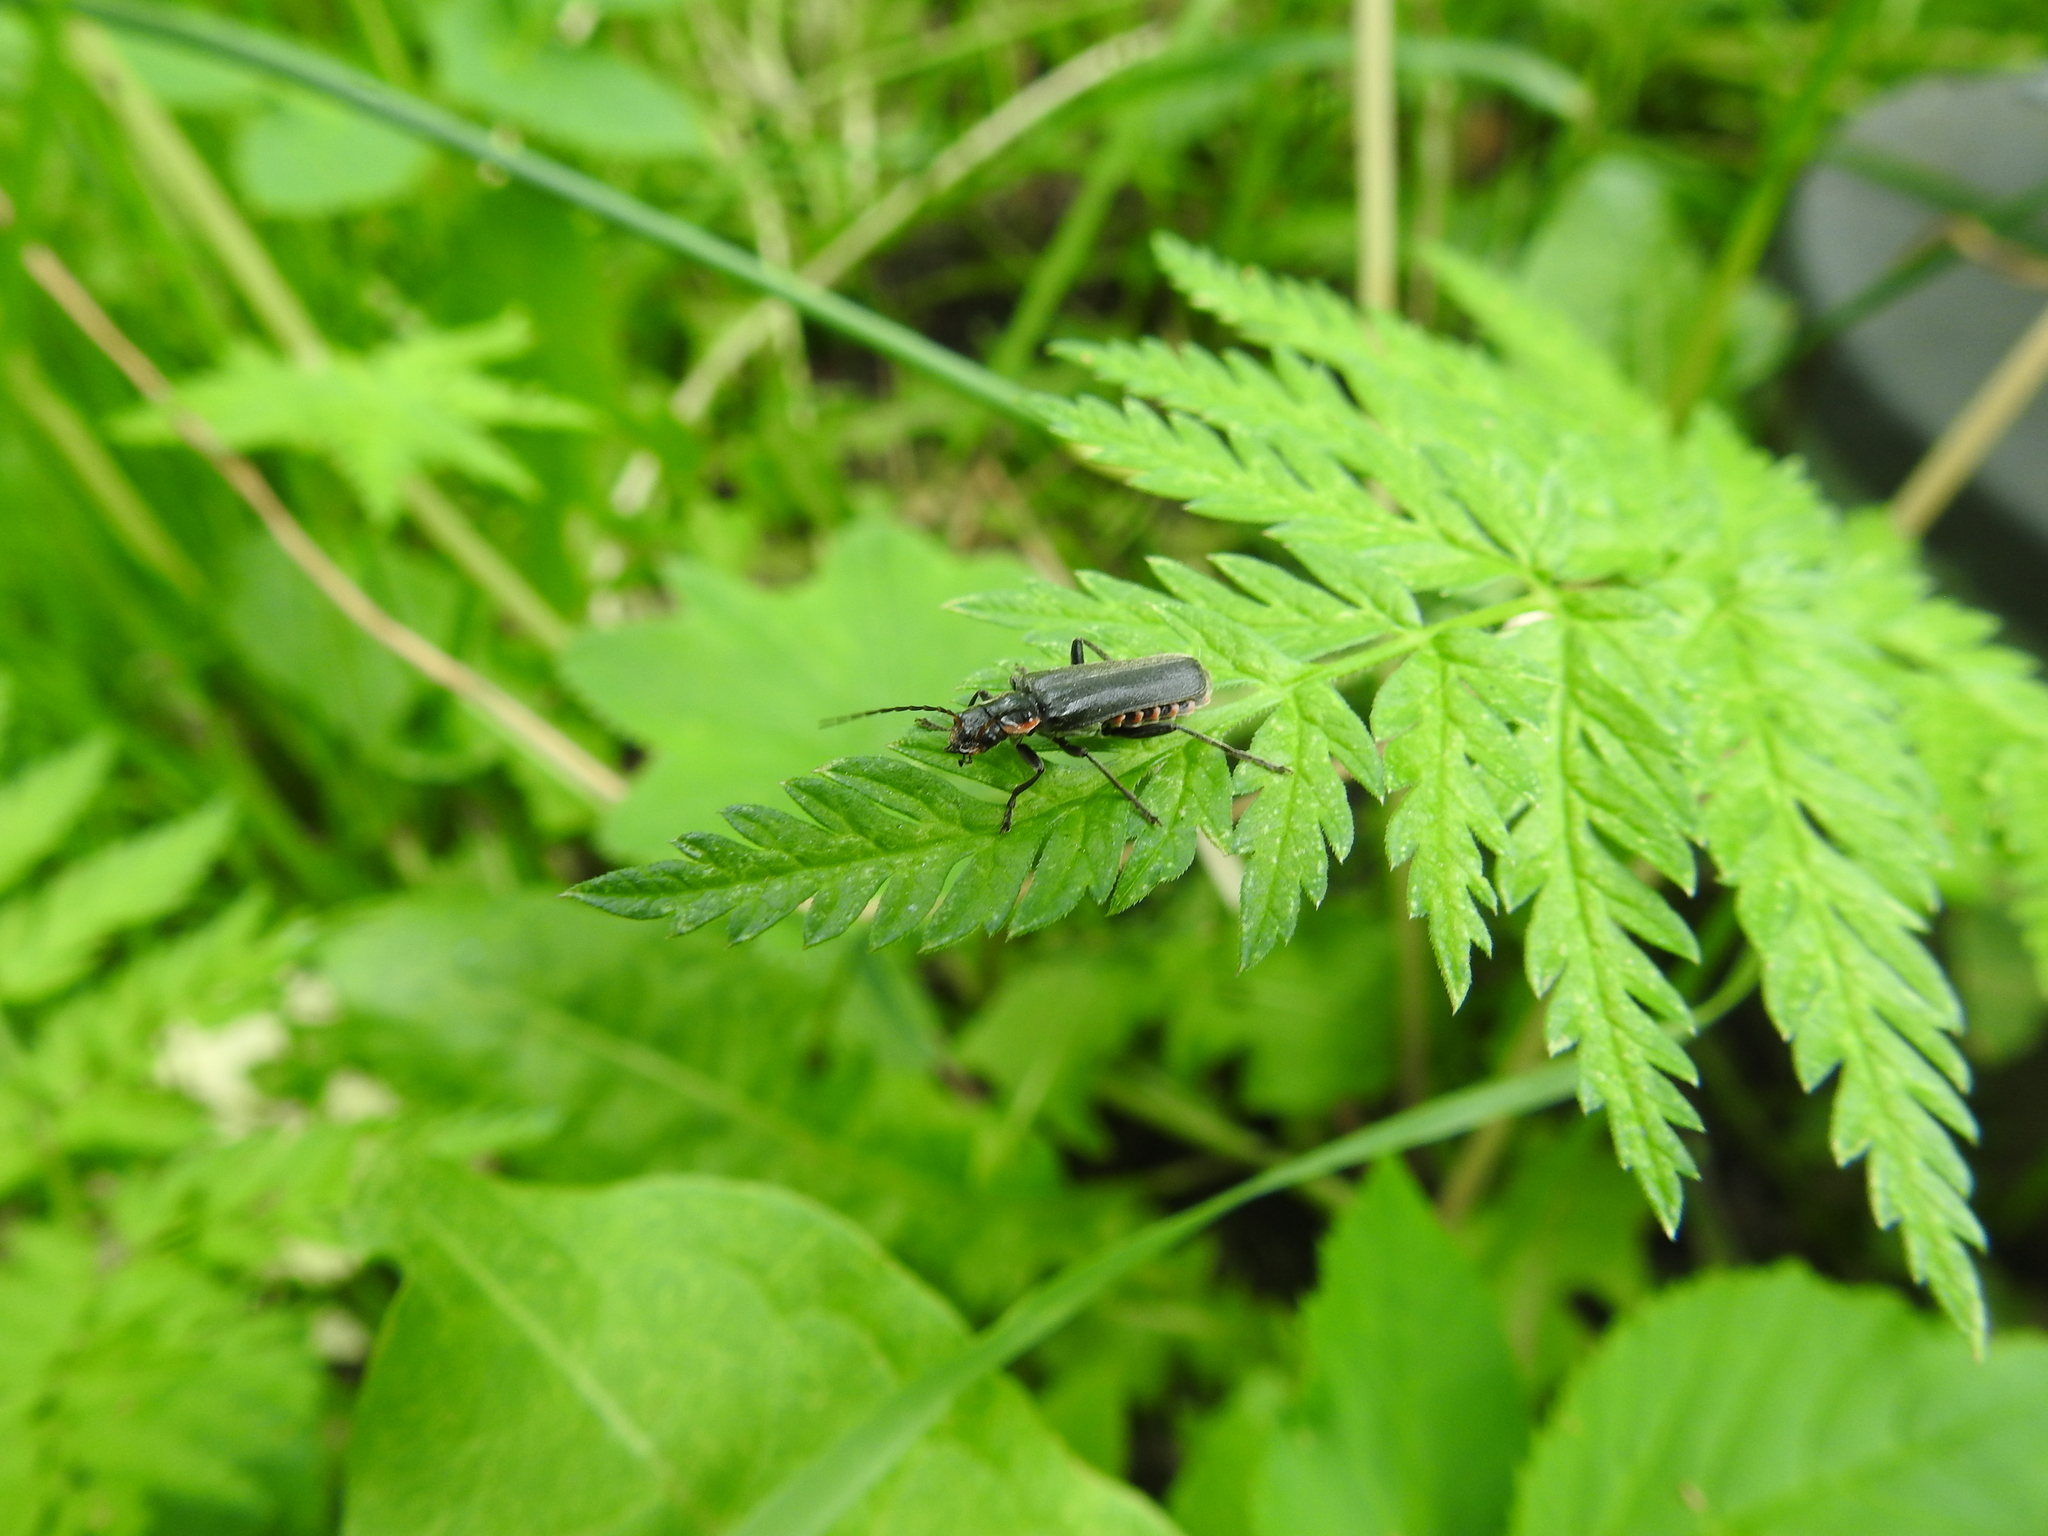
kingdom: Animalia
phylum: Arthropoda
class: Insecta
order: Coleoptera
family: Cantharidae
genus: Cantharis
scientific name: Cantharis obscura
